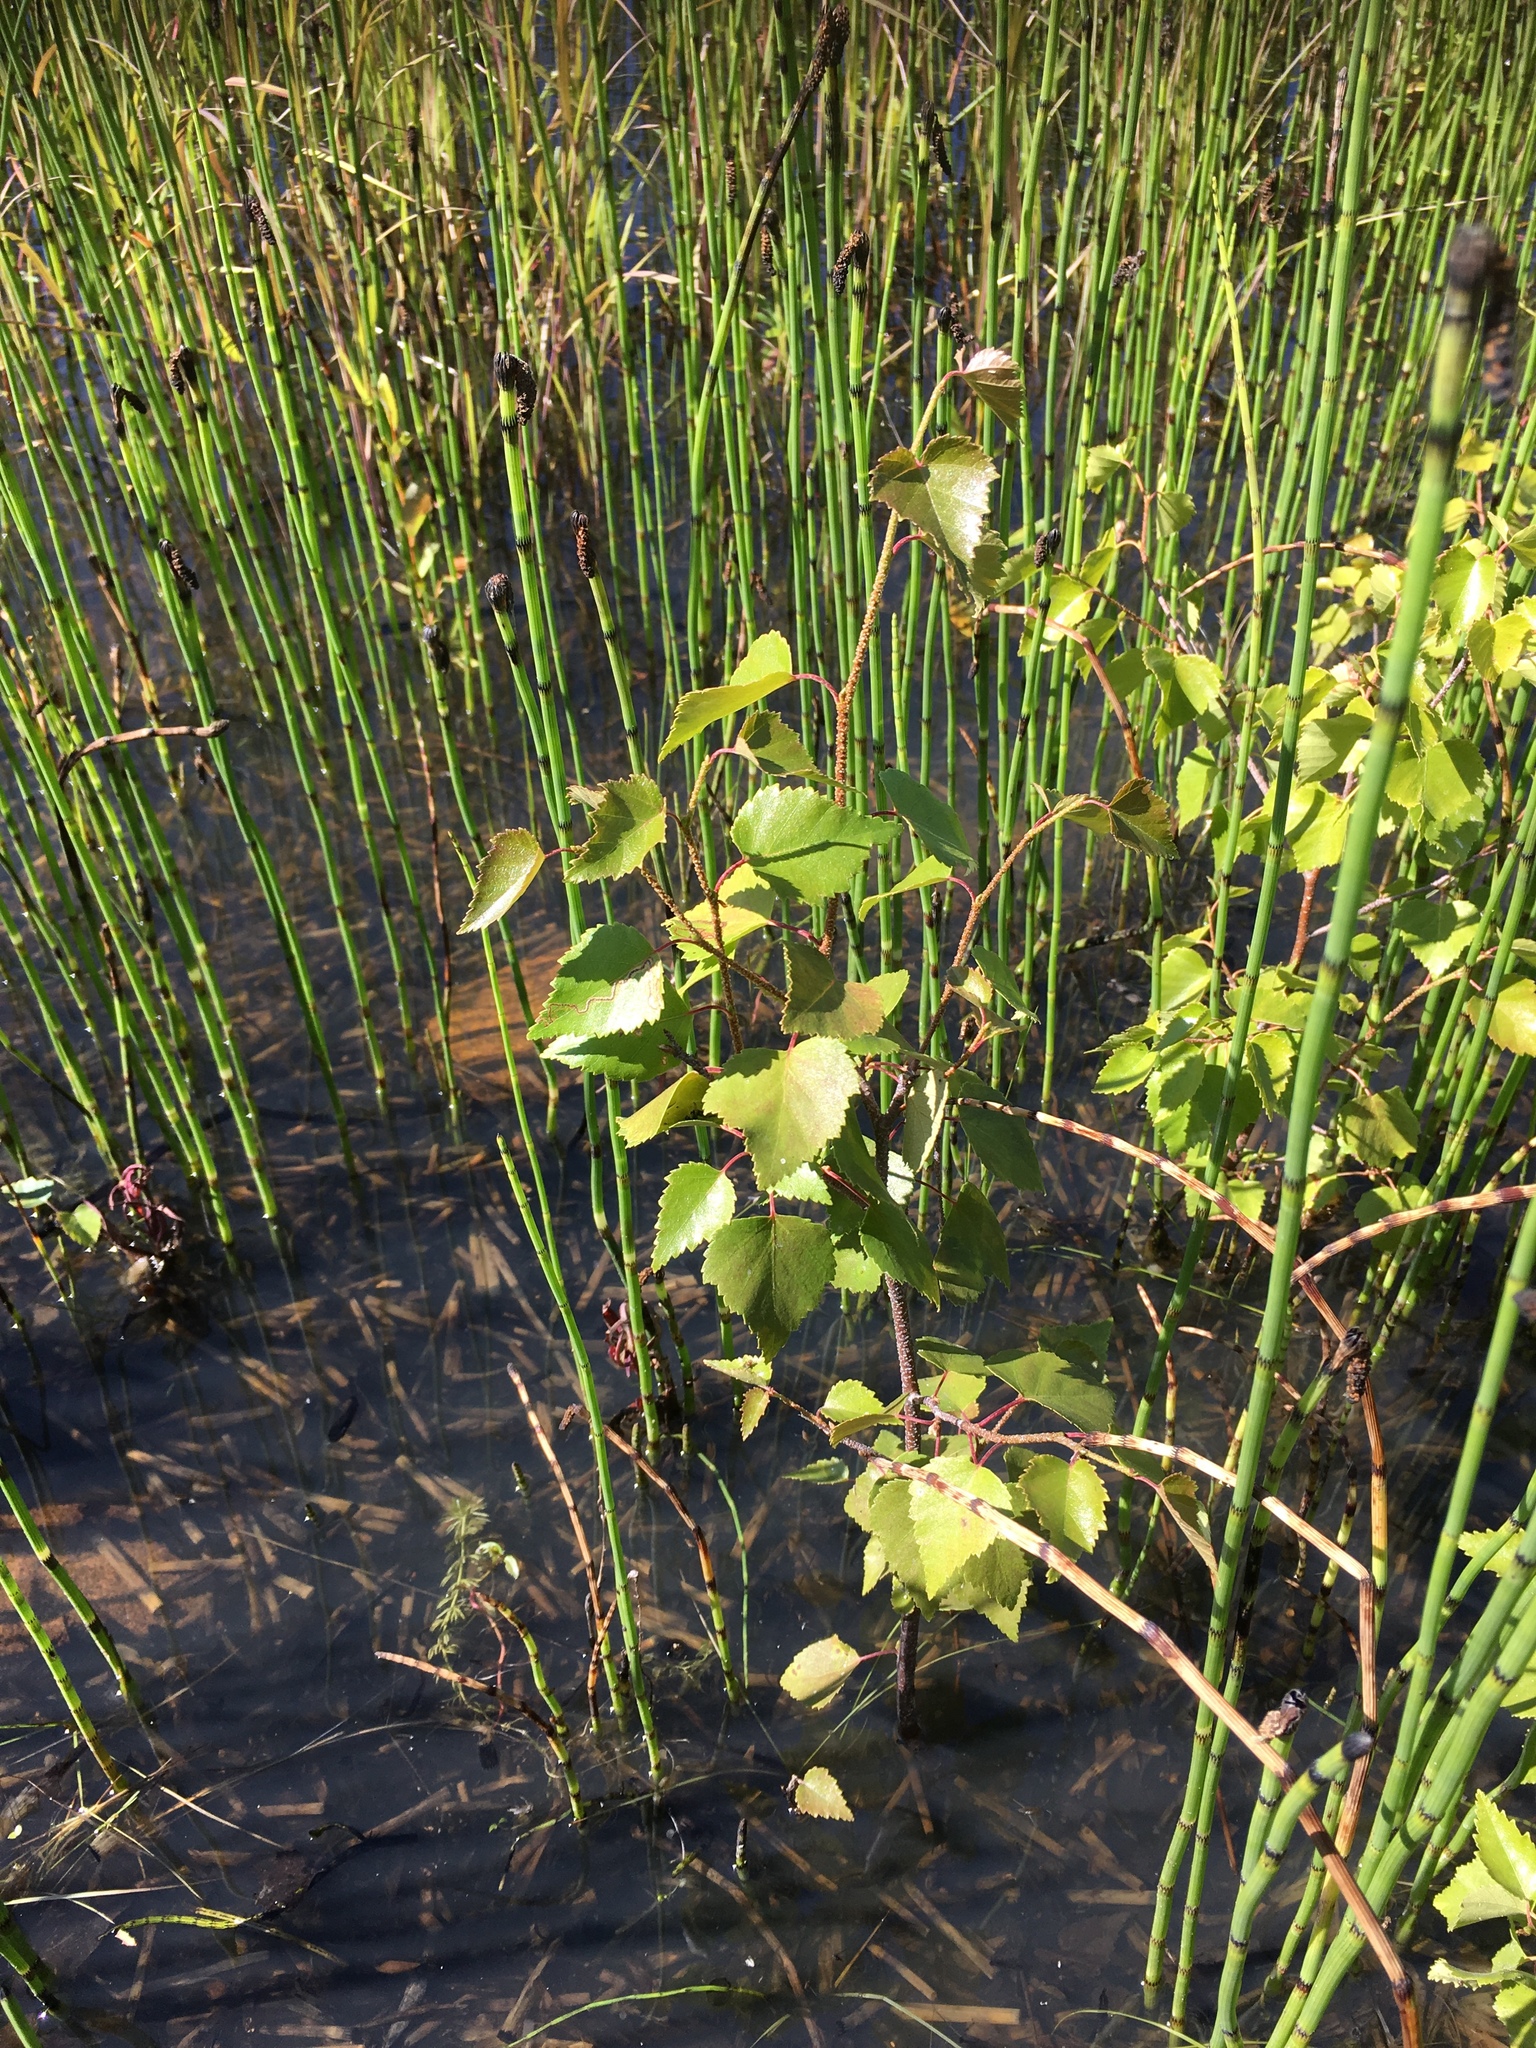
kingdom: Plantae
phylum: Tracheophyta
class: Magnoliopsida
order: Fagales
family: Betulaceae
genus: Betula
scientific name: Betula pendula
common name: Silver birch
